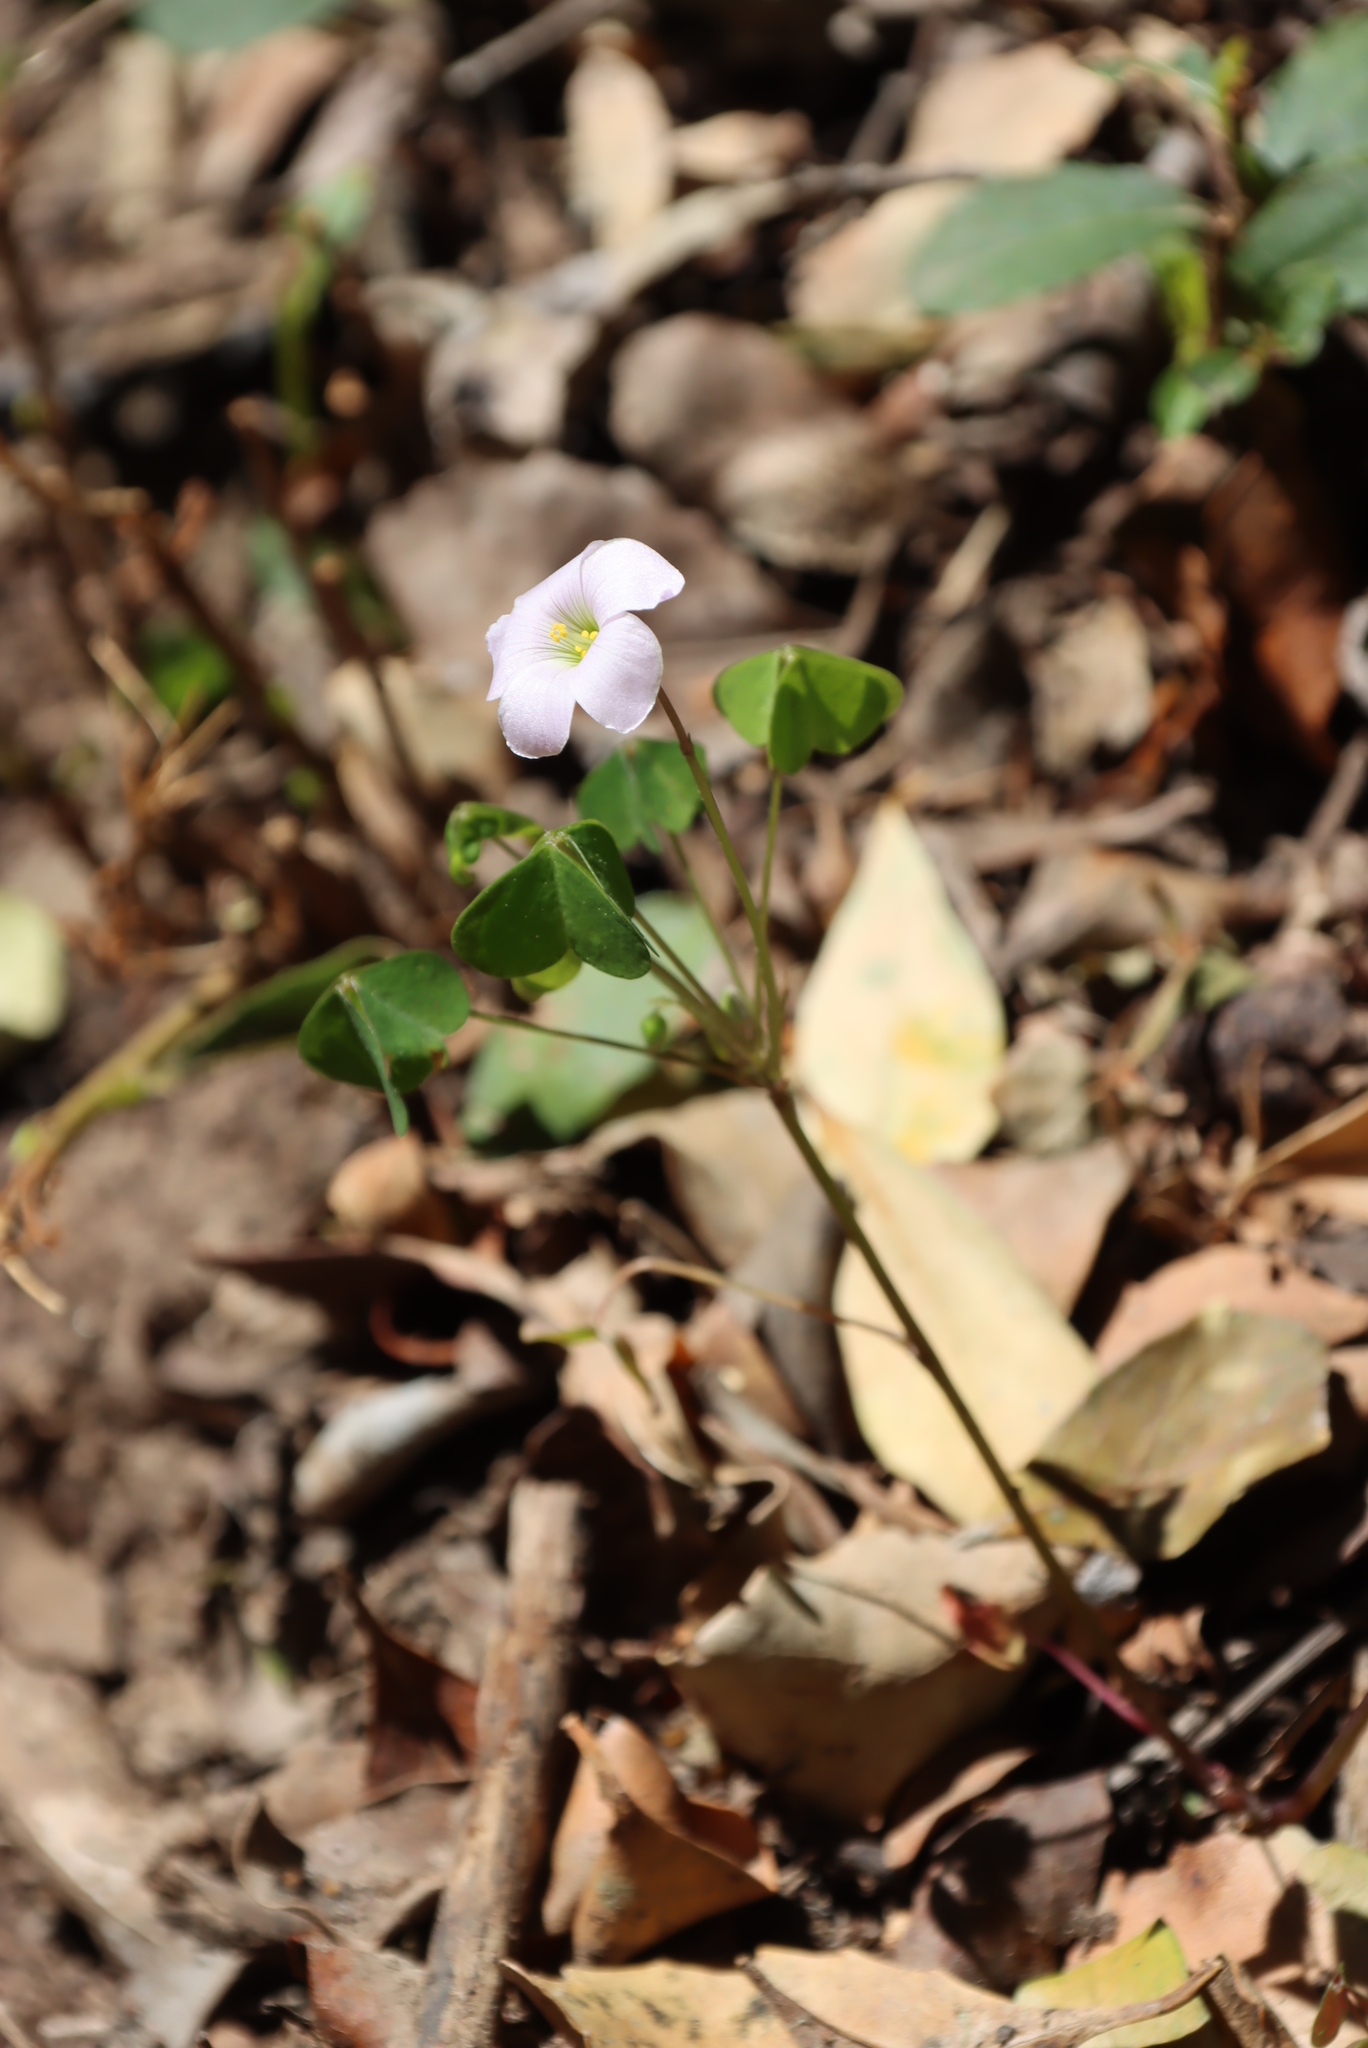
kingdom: Plantae
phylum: Tracheophyta
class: Magnoliopsida
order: Oxalidales
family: Oxalidaceae
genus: Oxalis
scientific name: Oxalis incarnata
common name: Pale pink-sorrel
